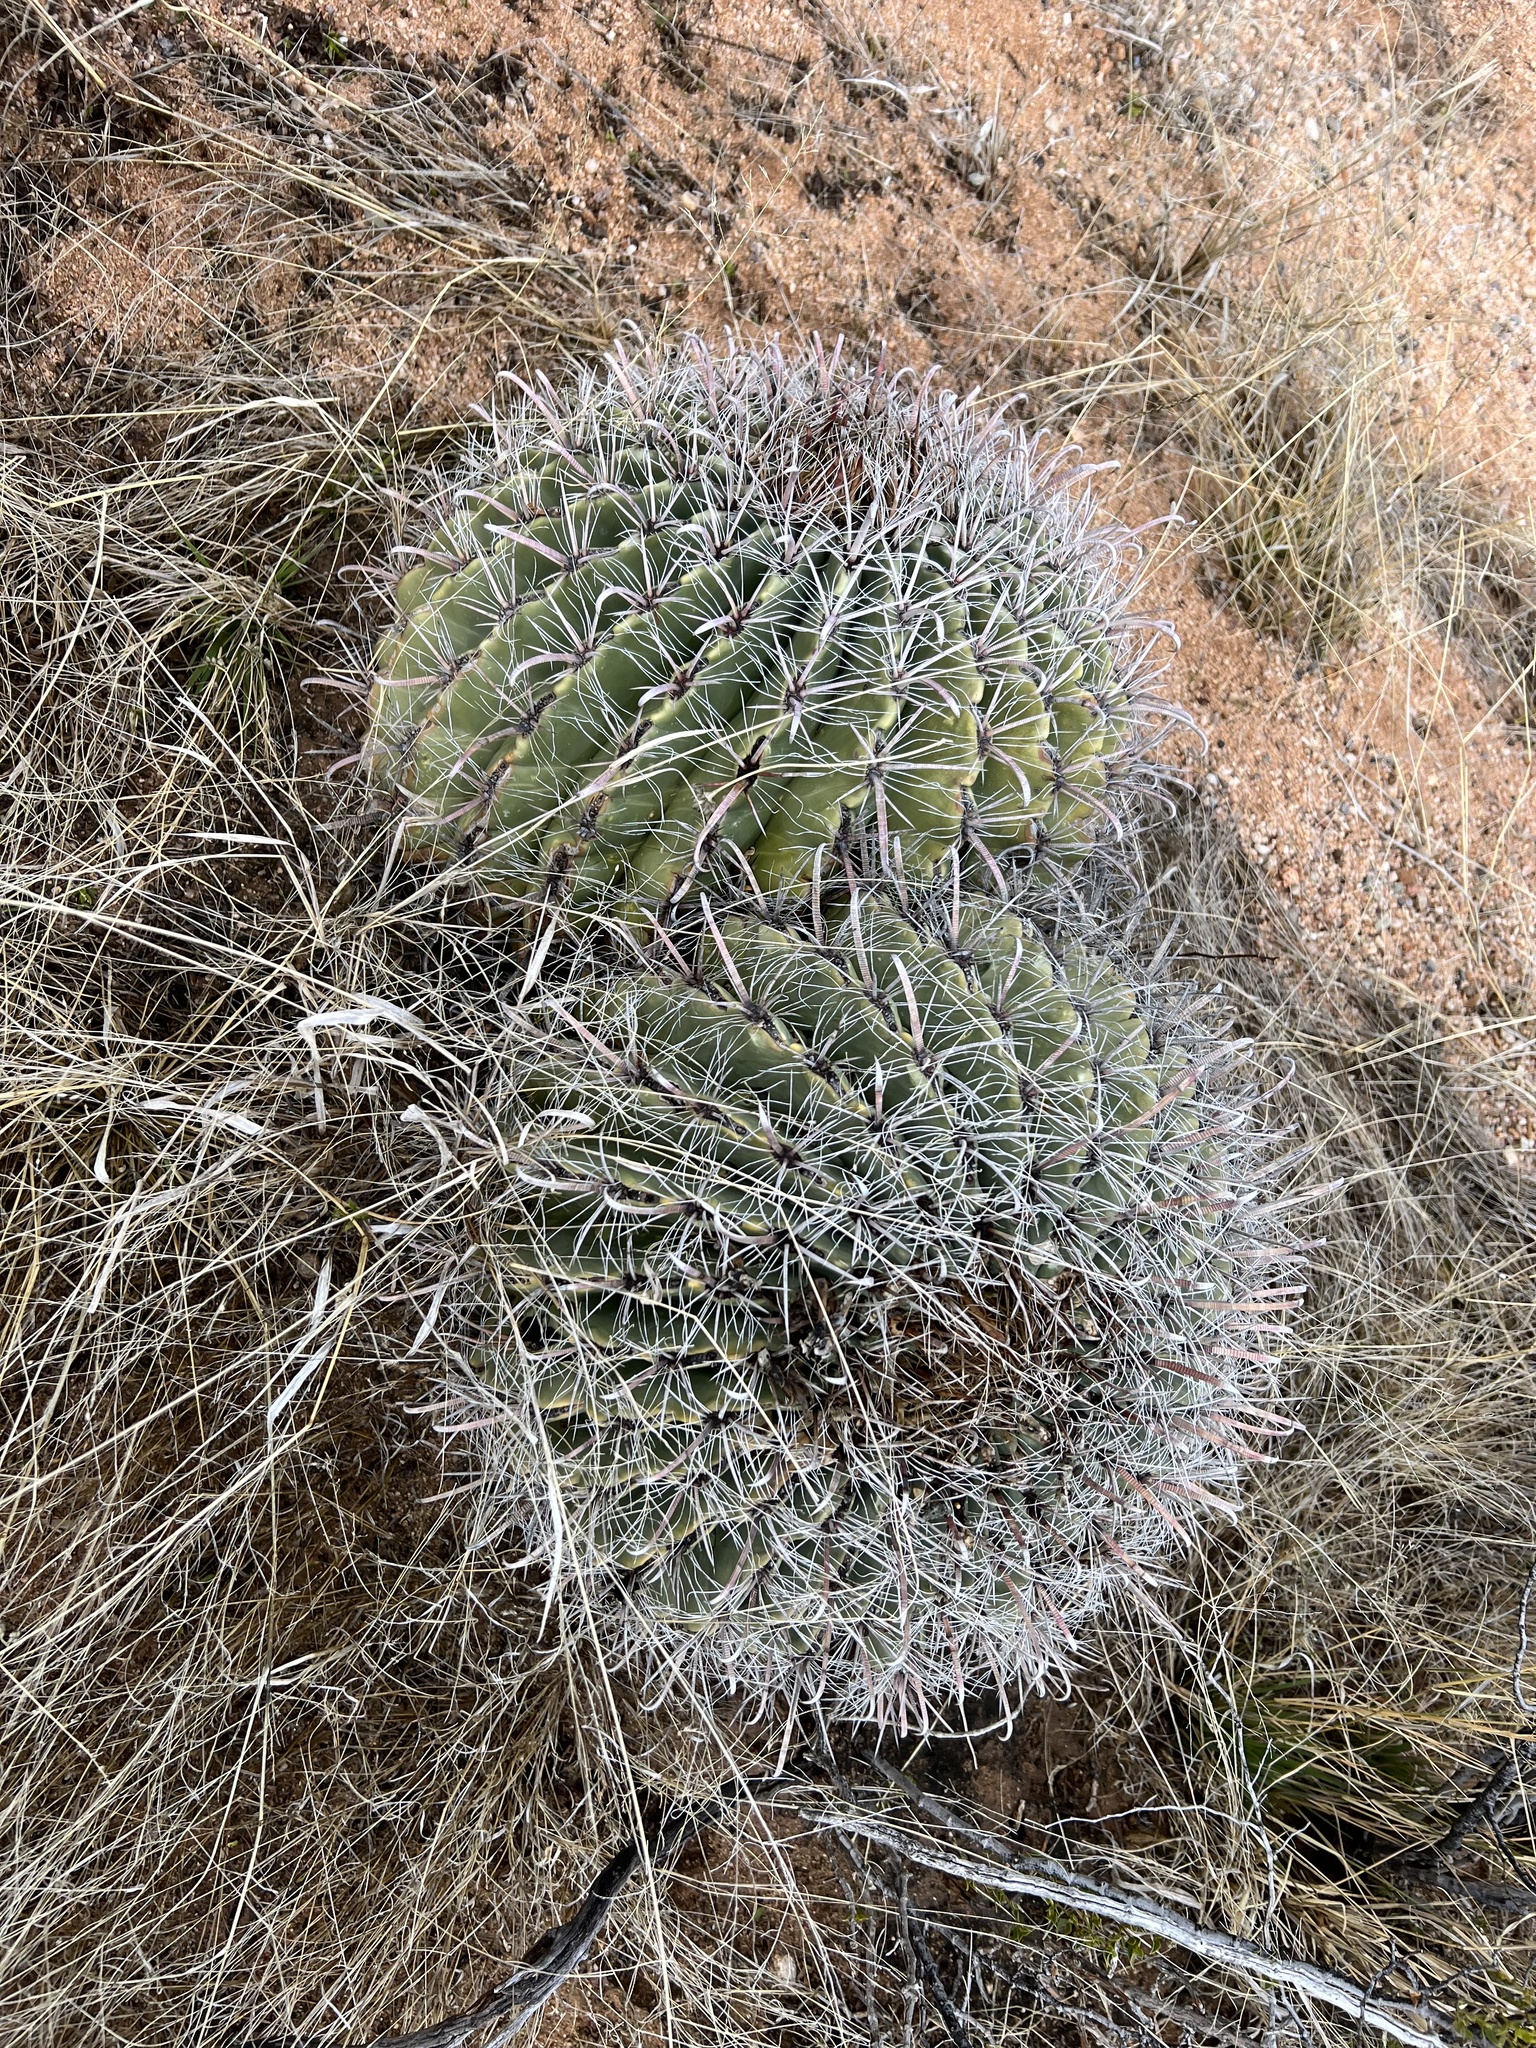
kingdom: Plantae
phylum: Tracheophyta
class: Magnoliopsida
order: Caryophyllales
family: Cactaceae
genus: Ferocactus
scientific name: Ferocactus wislizeni
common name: Candy barrel cactus
